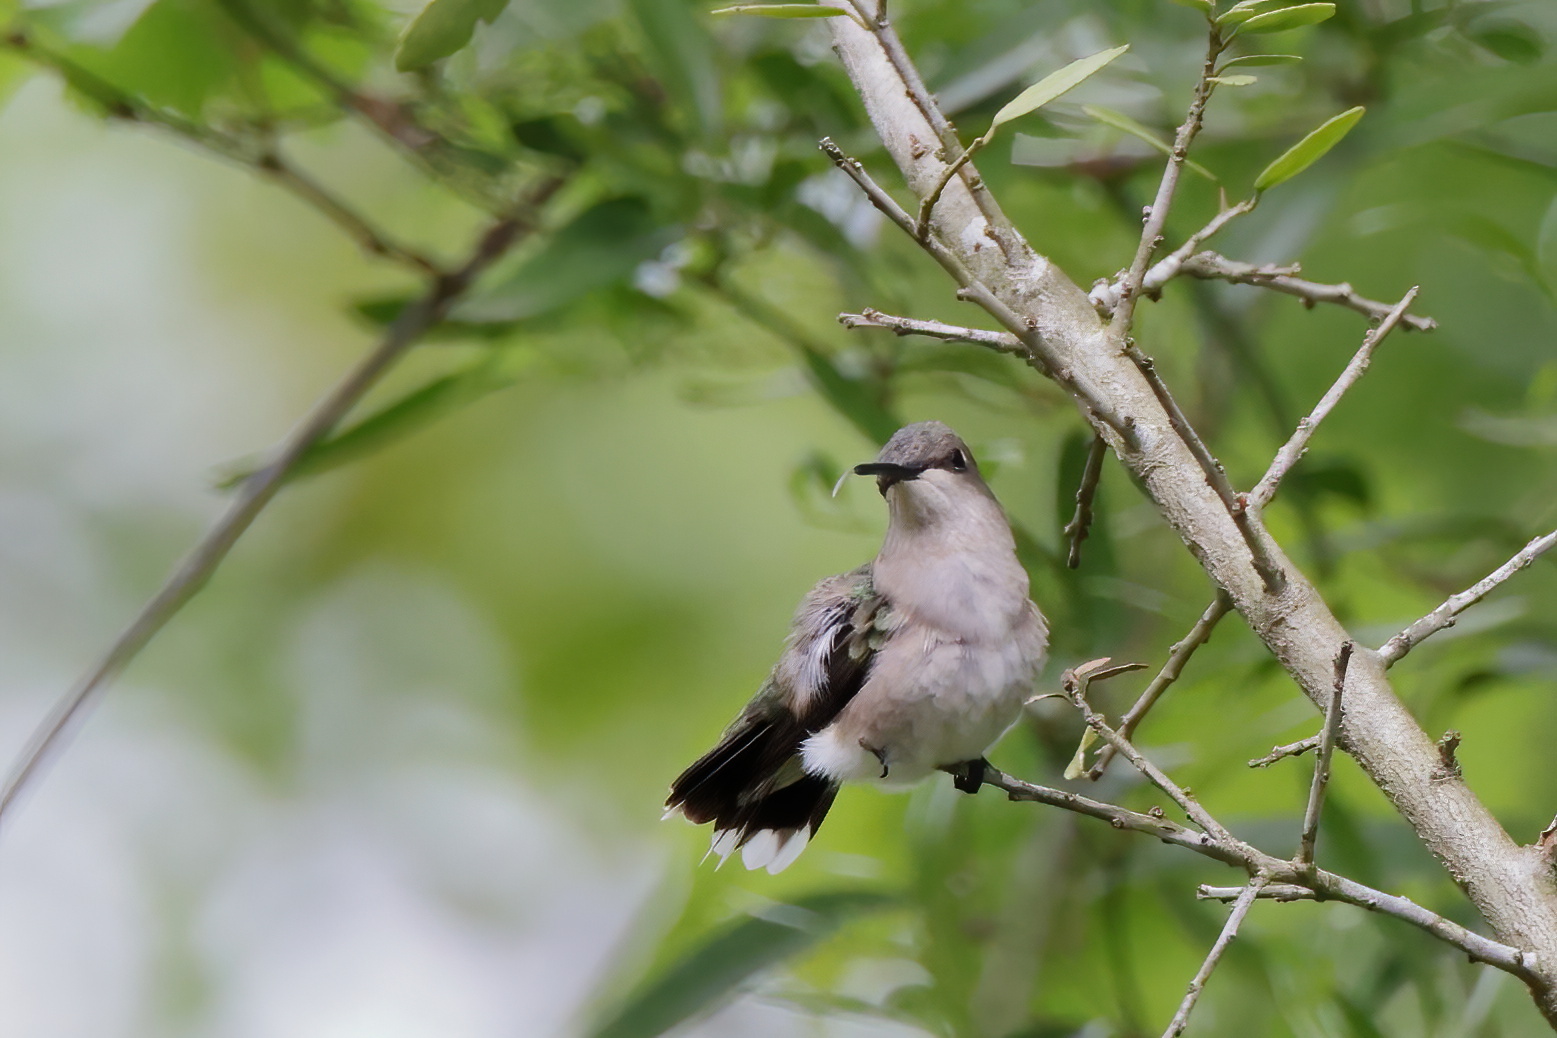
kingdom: Animalia
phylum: Chordata
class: Aves
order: Apodiformes
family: Trochilidae
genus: Archilochus
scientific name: Archilochus colubris
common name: Ruby-throated hummingbird
